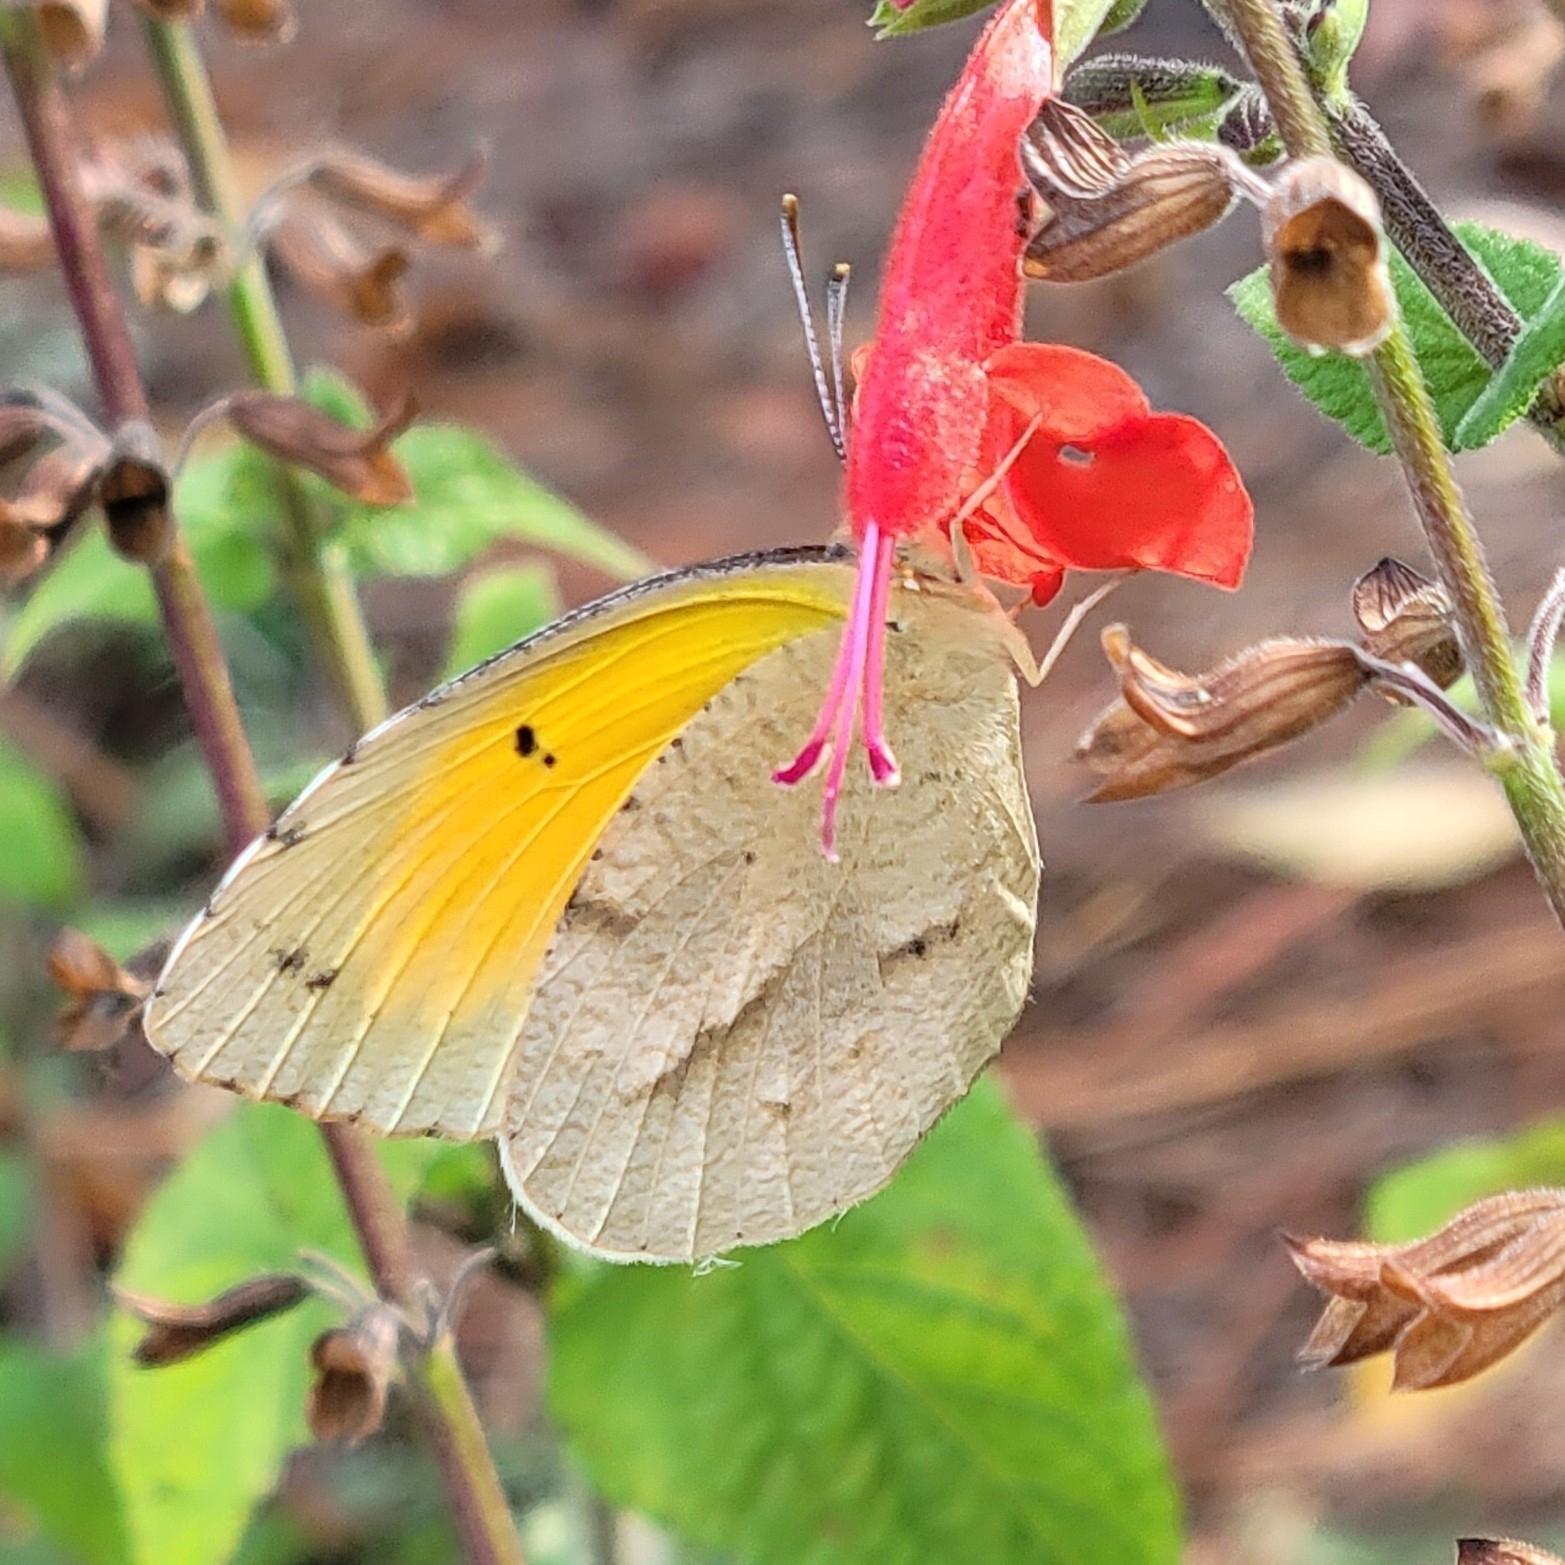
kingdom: Animalia
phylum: Arthropoda
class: Insecta
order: Lepidoptera
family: Pieridae
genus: Abaeis
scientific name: Abaeis nicippe
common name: Sleepy orange
